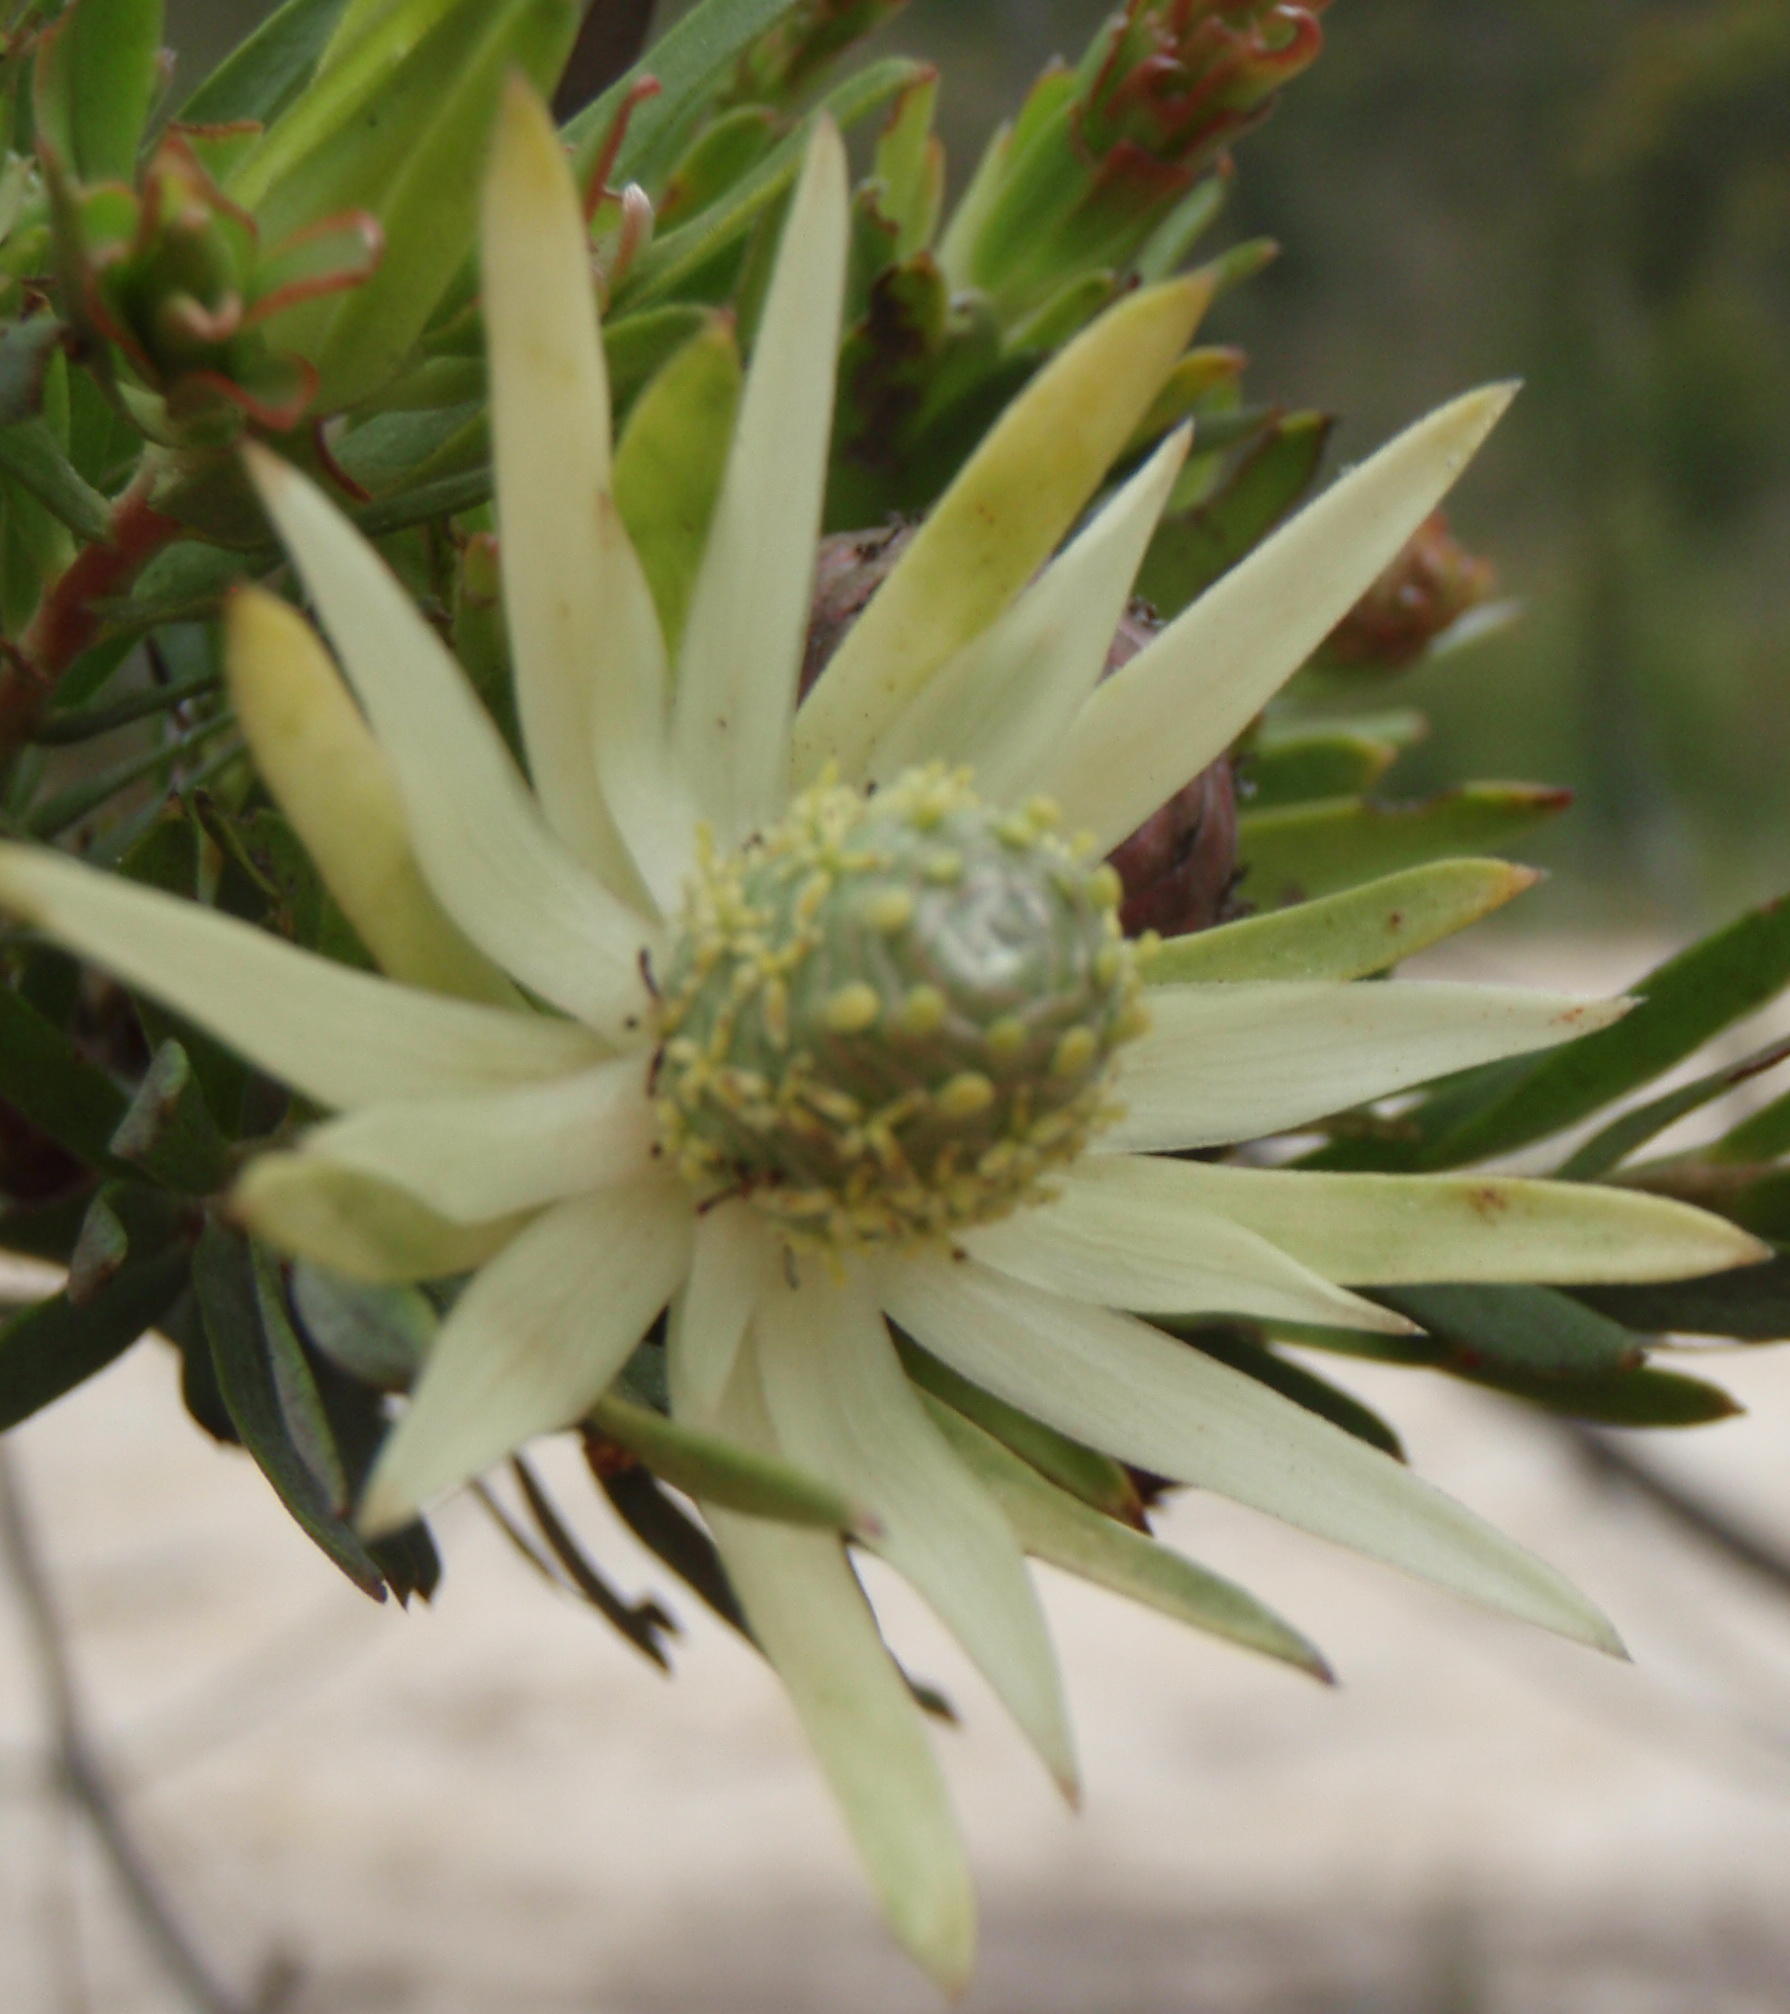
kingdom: Plantae
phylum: Tracheophyta
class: Magnoliopsida
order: Proteales
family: Proteaceae
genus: Leucadendron
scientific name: Leucadendron uliginosum
